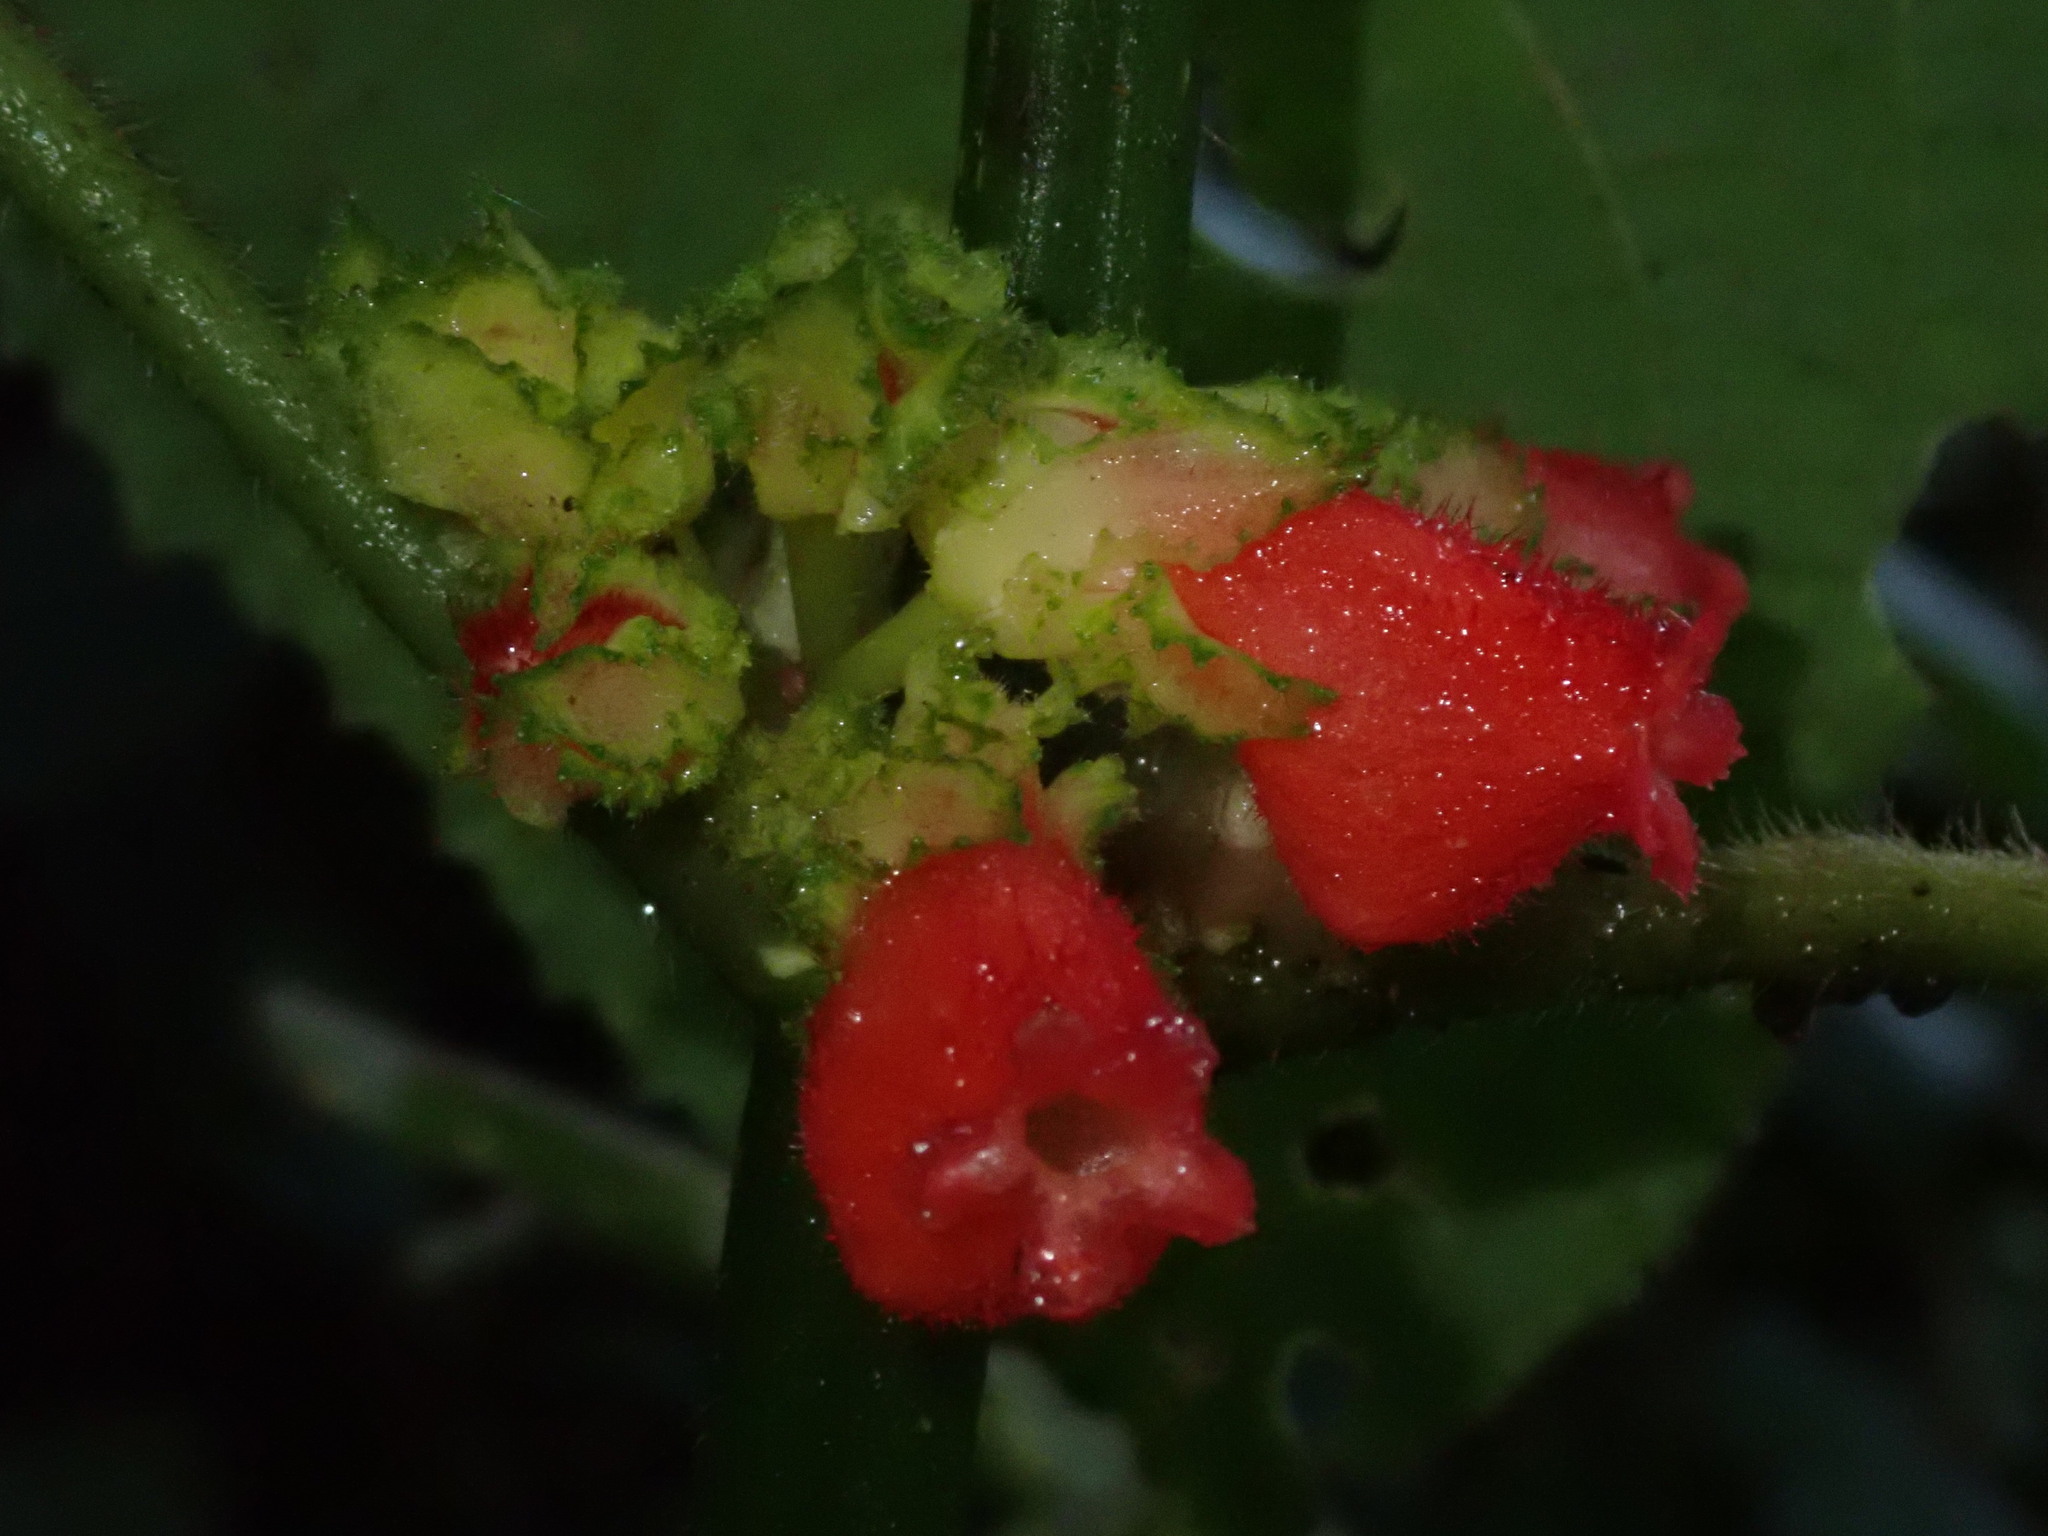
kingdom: Plantae
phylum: Tracheophyta
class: Magnoliopsida
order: Lamiales
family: Gesneriaceae
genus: Drymonia
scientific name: Drymonia teuscheri
